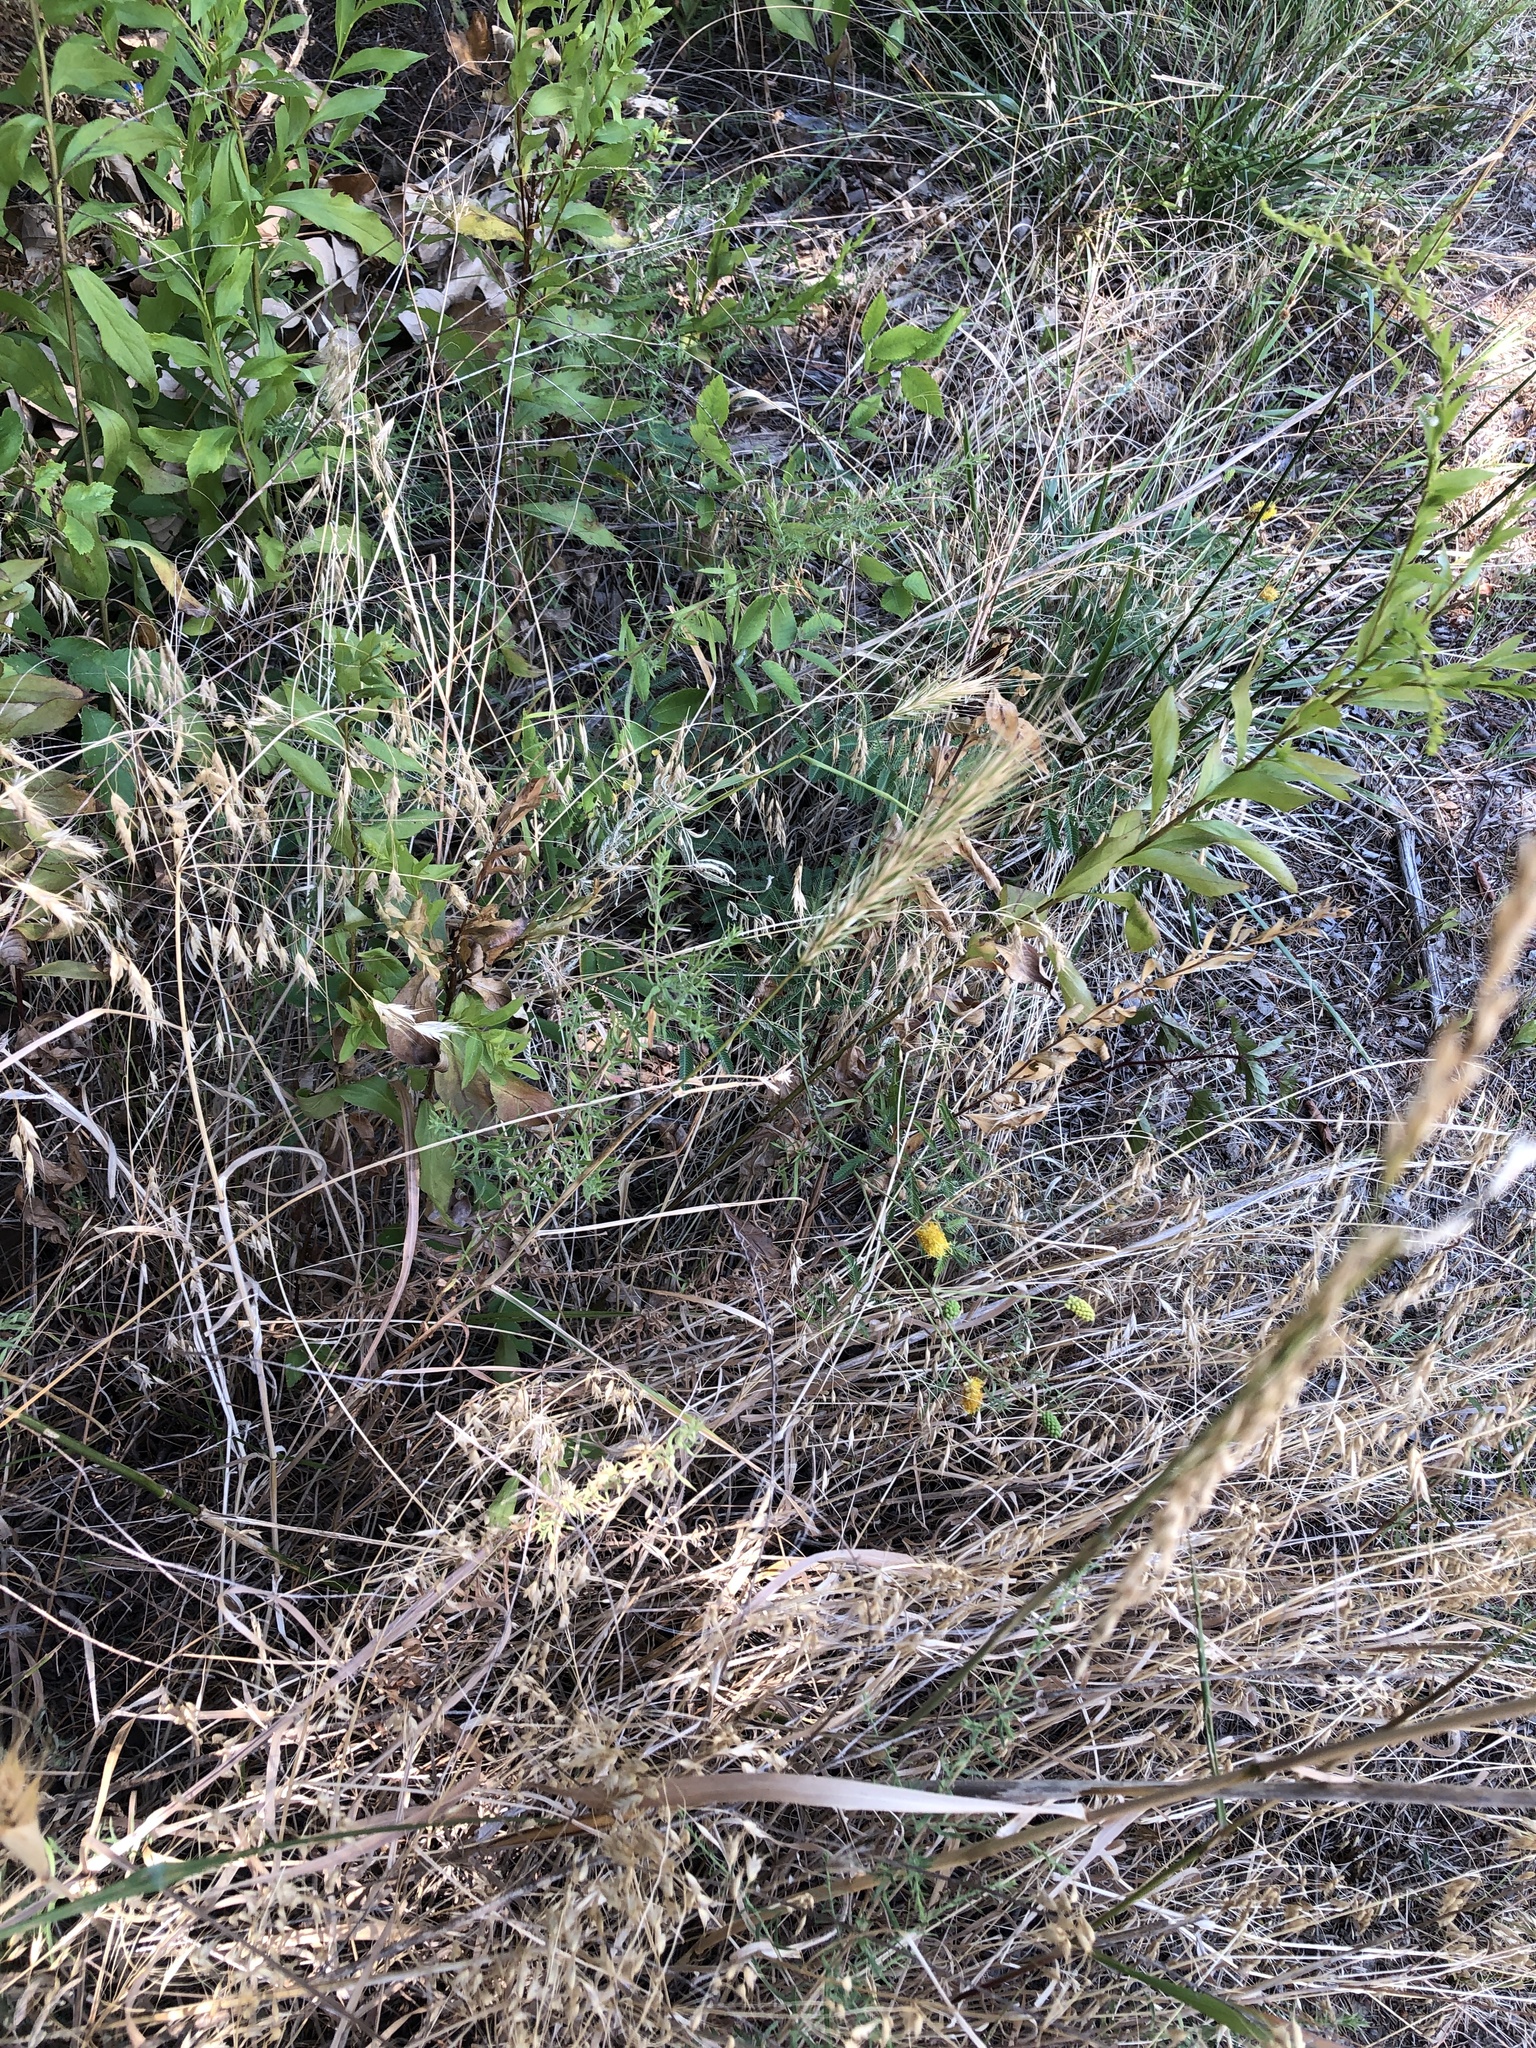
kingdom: Plantae
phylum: Tracheophyta
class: Liliopsida
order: Poales
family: Poaceae
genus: Elymus
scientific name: Elymus virginicus
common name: Common eastern wildrye
